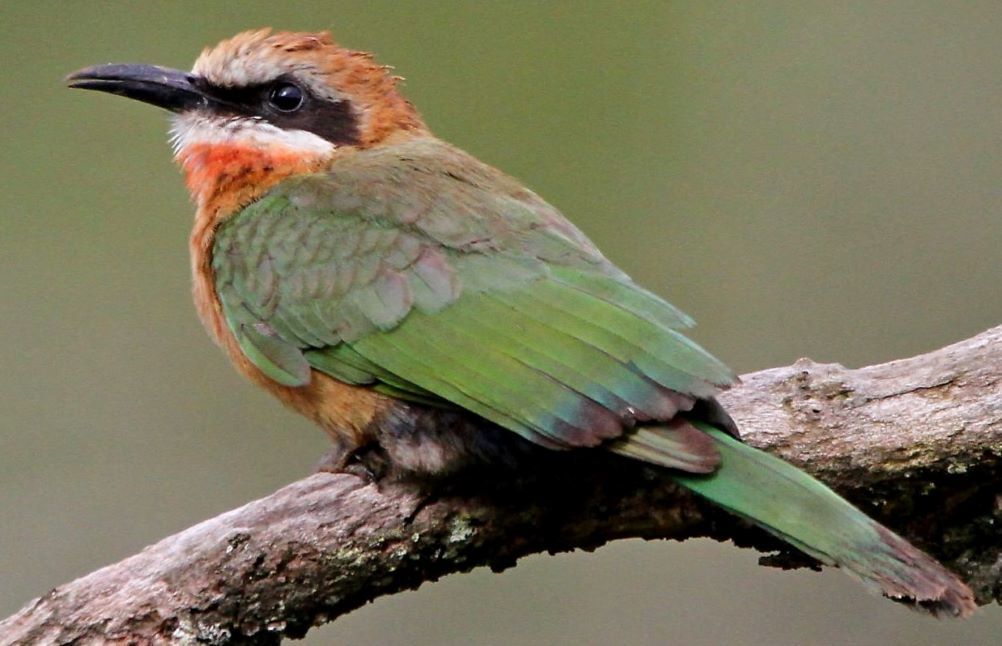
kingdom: Animalia
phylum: Chordata
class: Aves
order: Coraciiformes
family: Meropidae
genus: Merops
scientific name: Merops bullockoides
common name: White-fronted bee-eater
